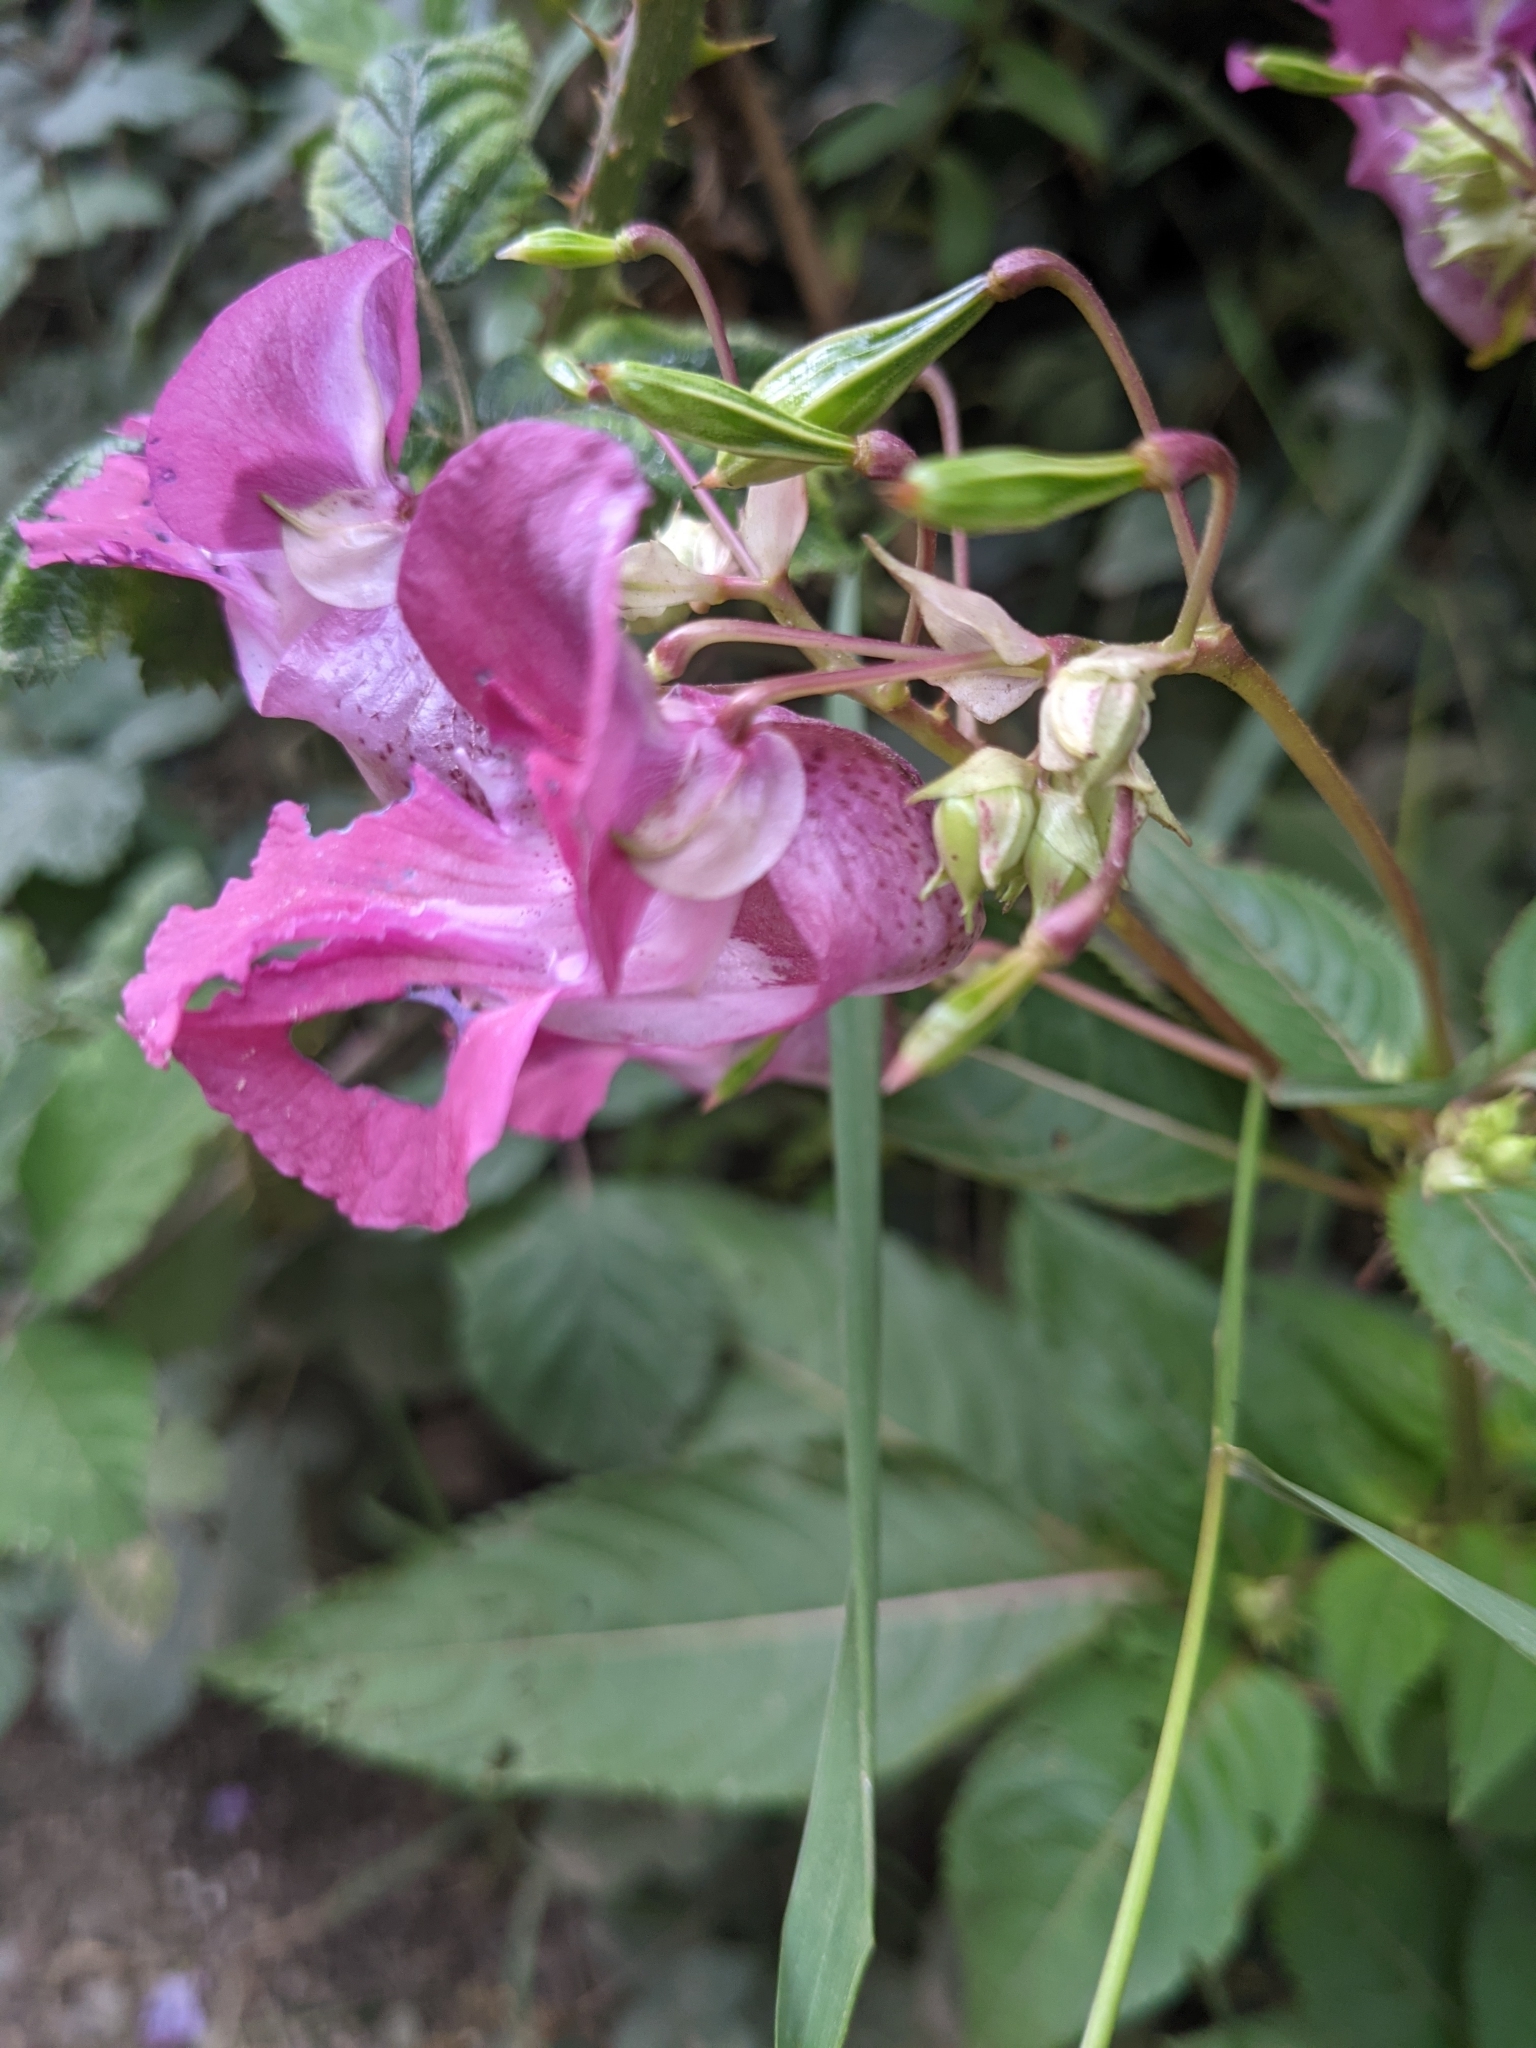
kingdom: Plantae
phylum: Tracheophyta
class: Magnoliopsida
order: Ericales
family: Balsaminaceae
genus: Impatiens
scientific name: Impatiens glandulifera
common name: Himalayan balsam
